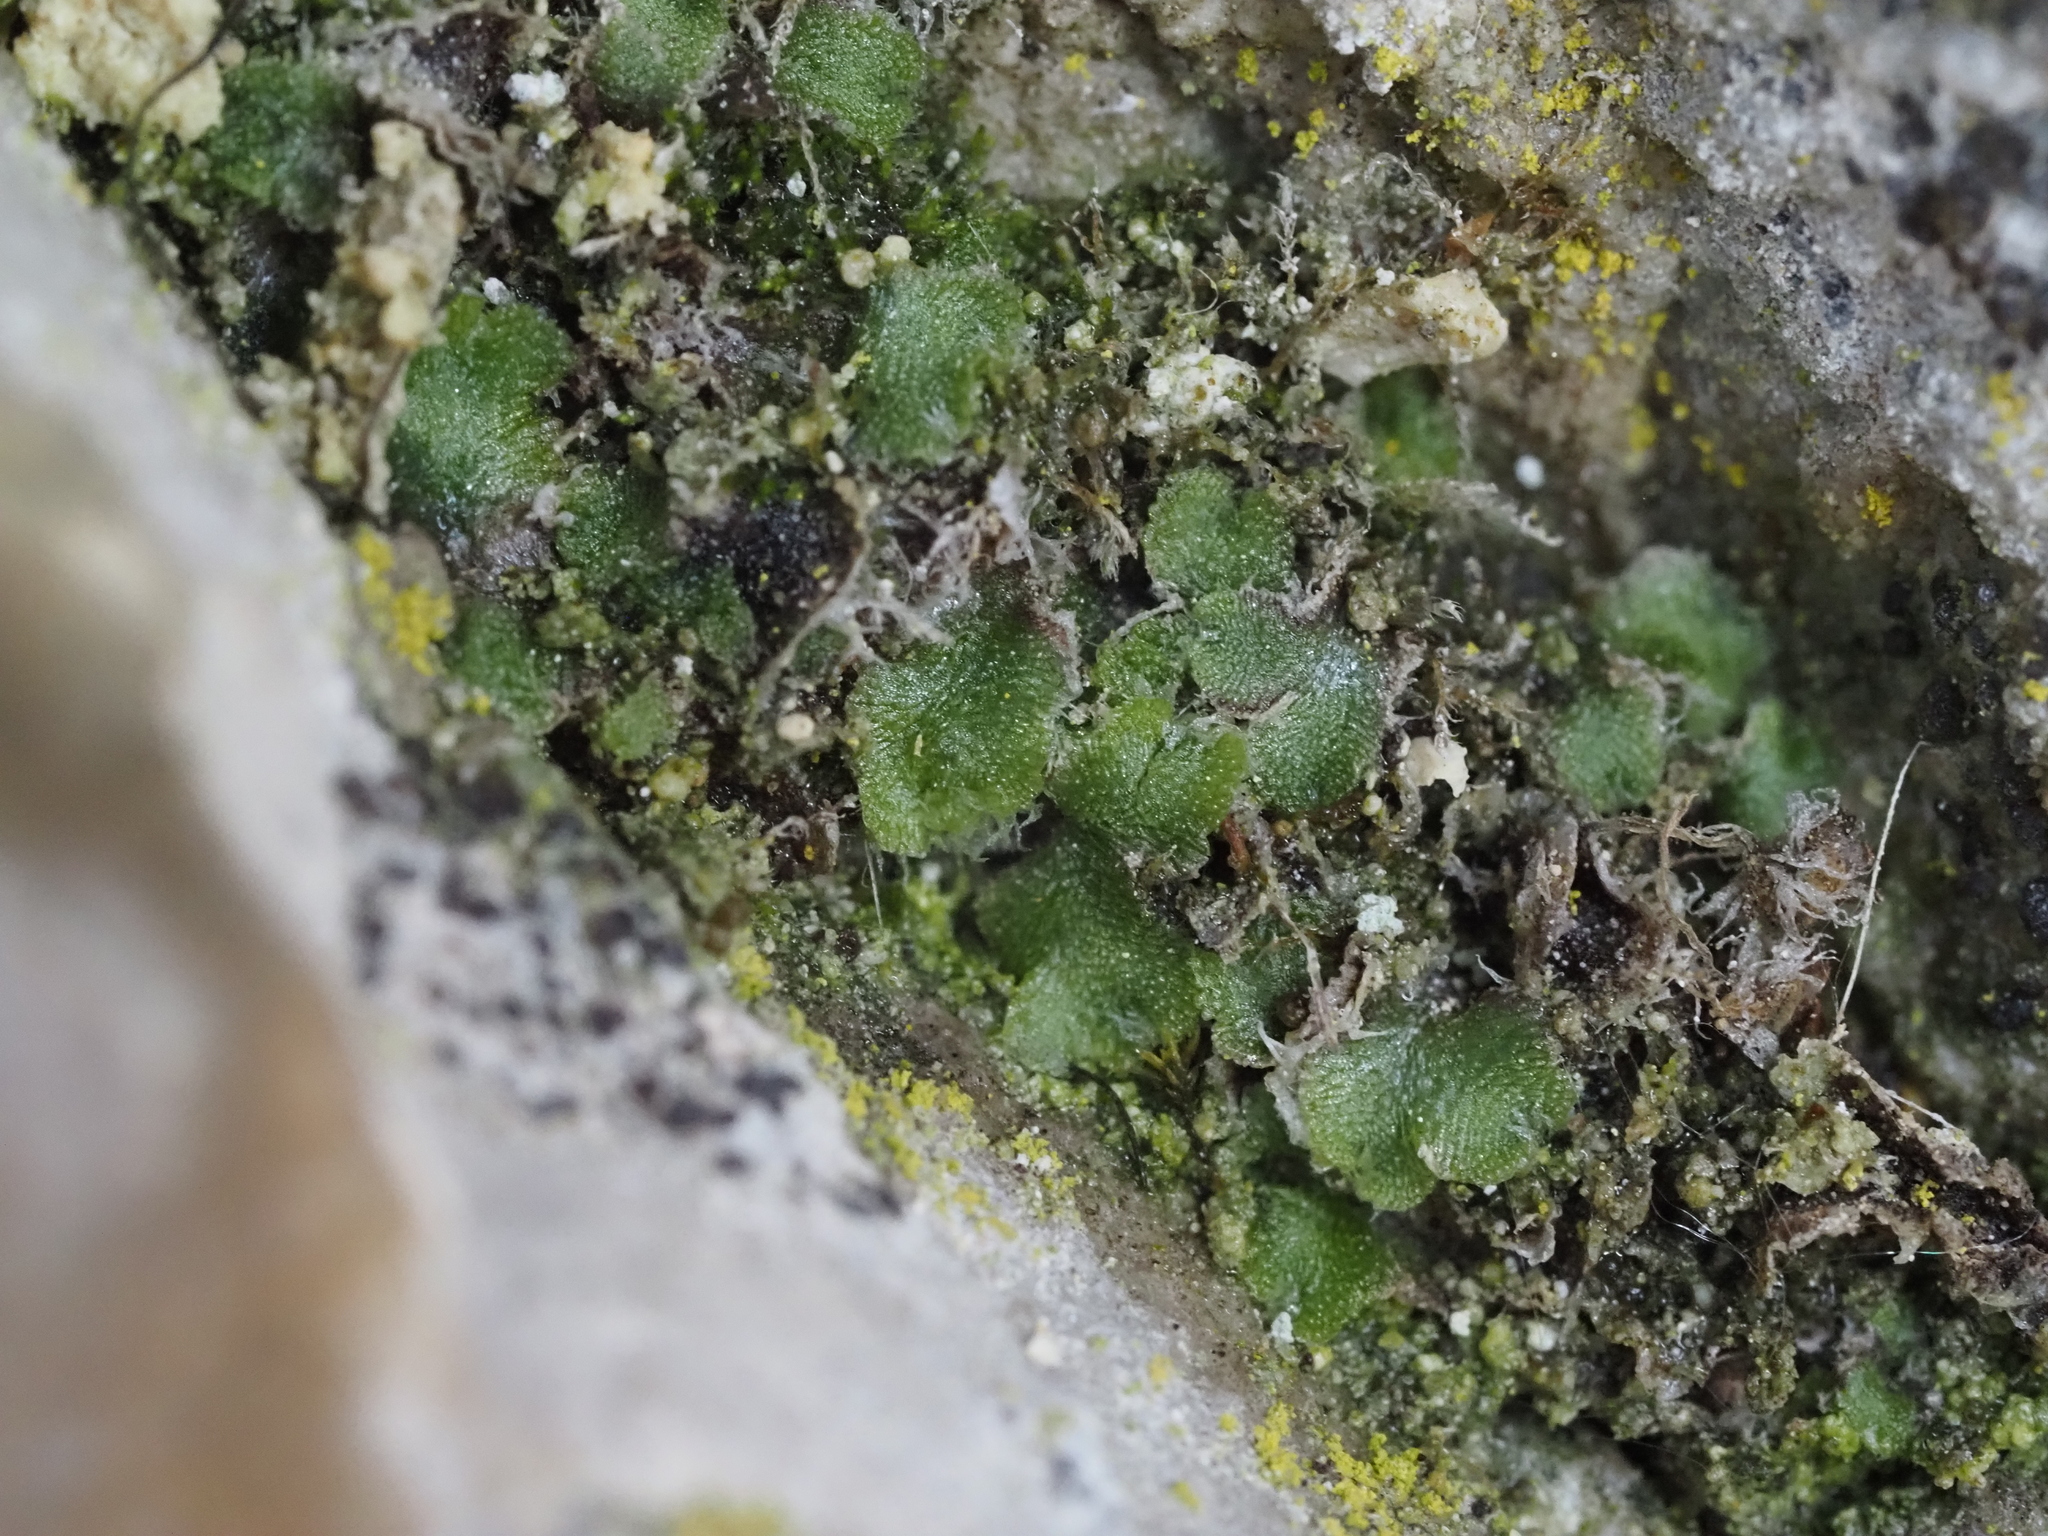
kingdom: Plantae
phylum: Marchantiophyta
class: Marchantiopsida
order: Marchantiales
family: Cleveaceae
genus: Clevea
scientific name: Clevea hyalina
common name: Hyaline liverwort
